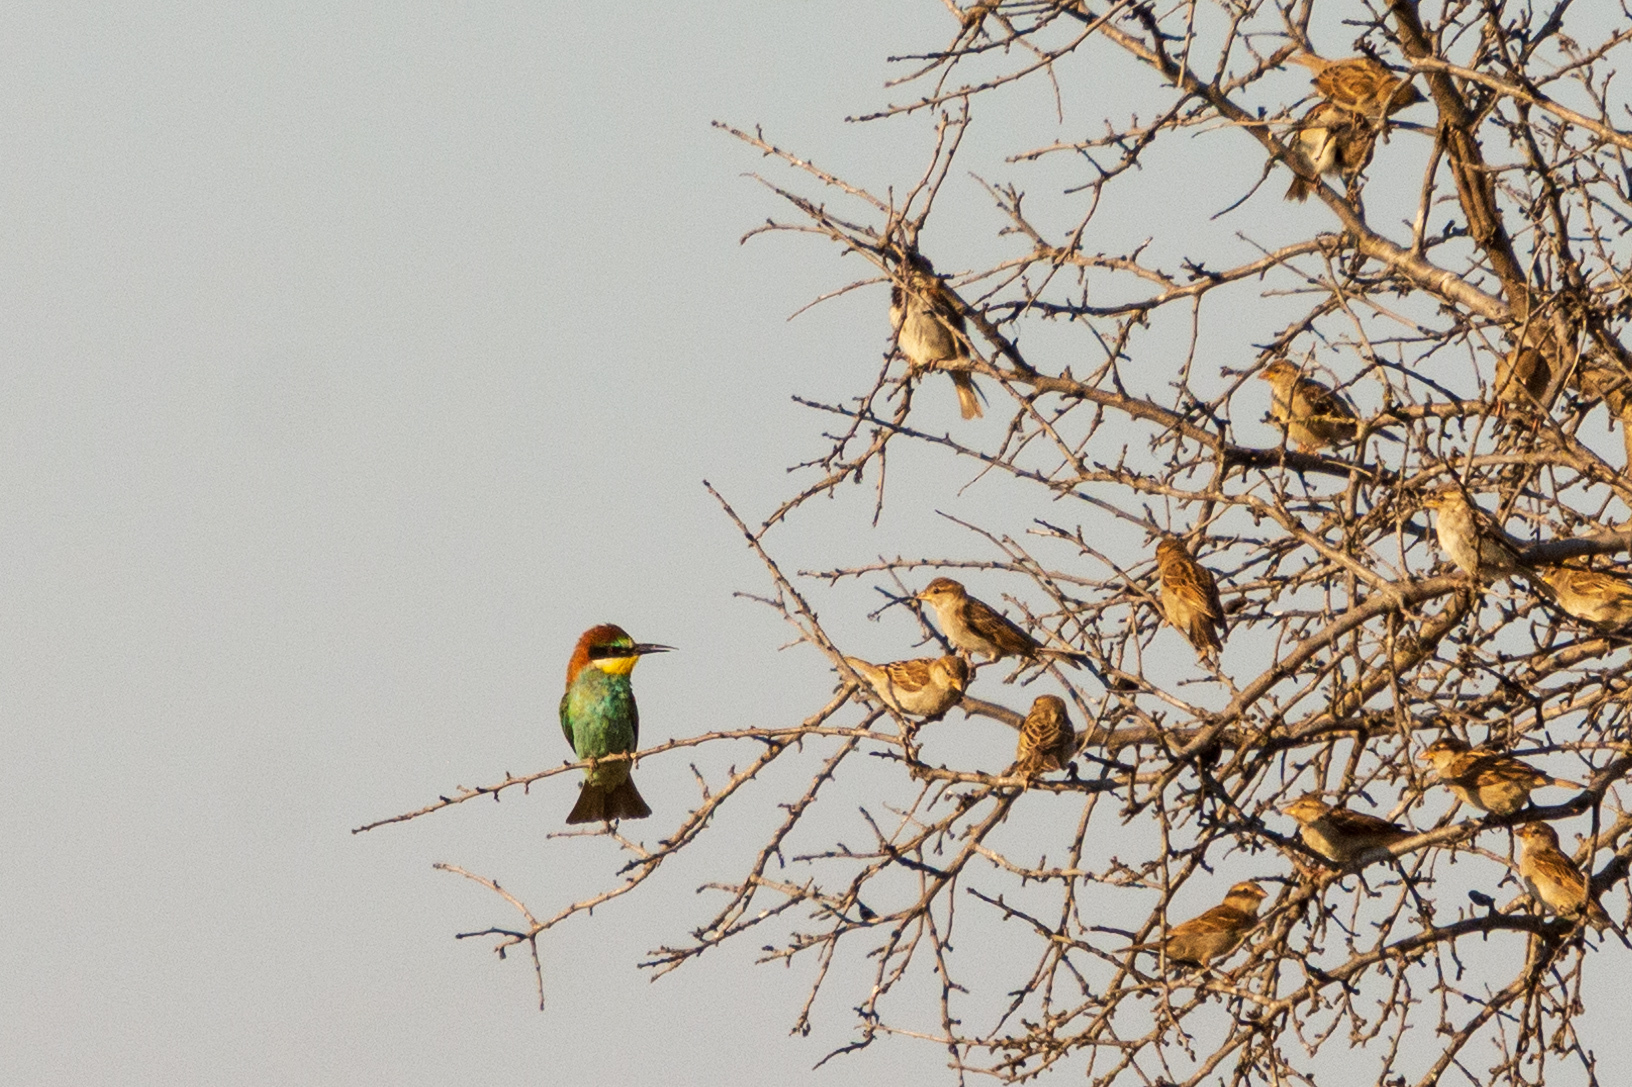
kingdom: Animalia
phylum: Chordata
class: Aves
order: Coraciiformes
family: Meropidae
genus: Merops
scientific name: Merops apiaster
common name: European bee-eater
